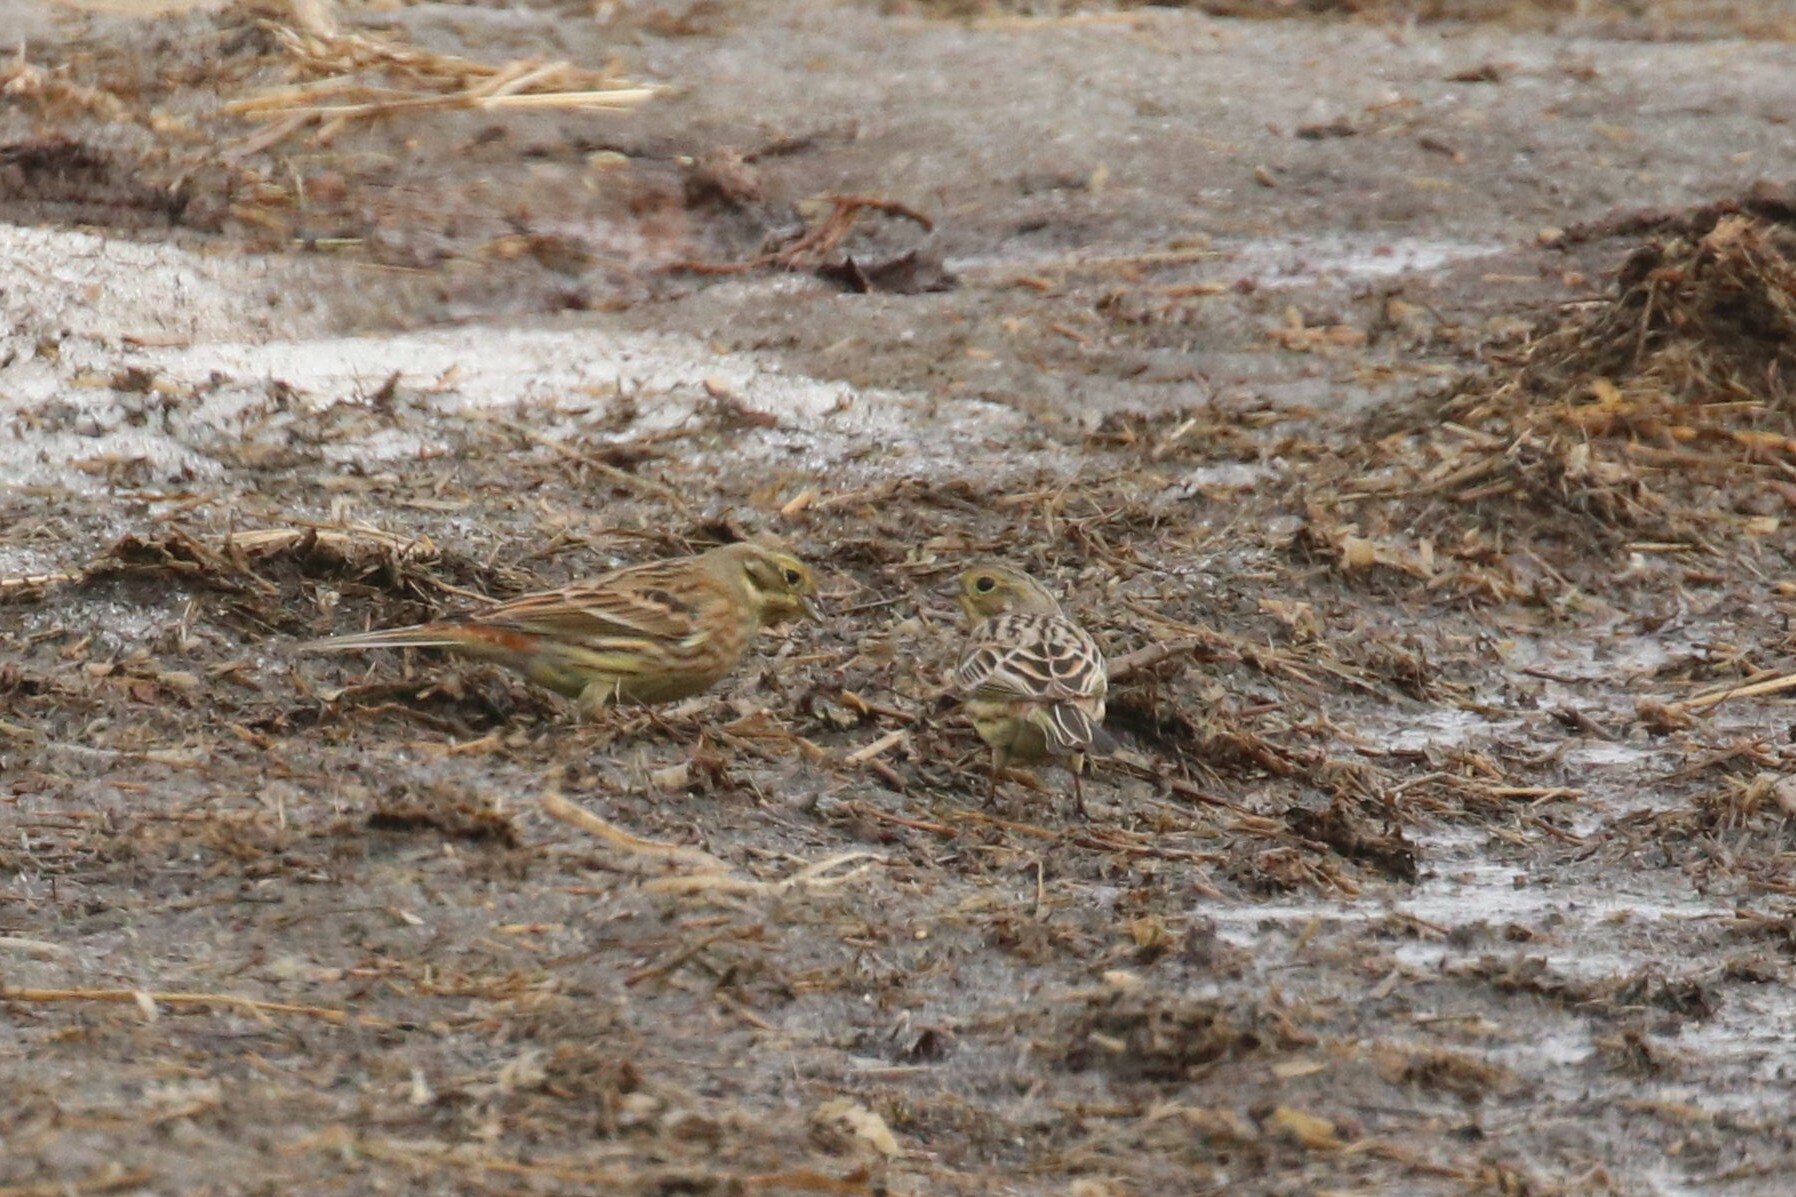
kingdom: Animalia
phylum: Chordata
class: Aves
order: Passeriformes
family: Emberizidae
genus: Emberiza
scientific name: Emberiza citrinella
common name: Yellowhammer
